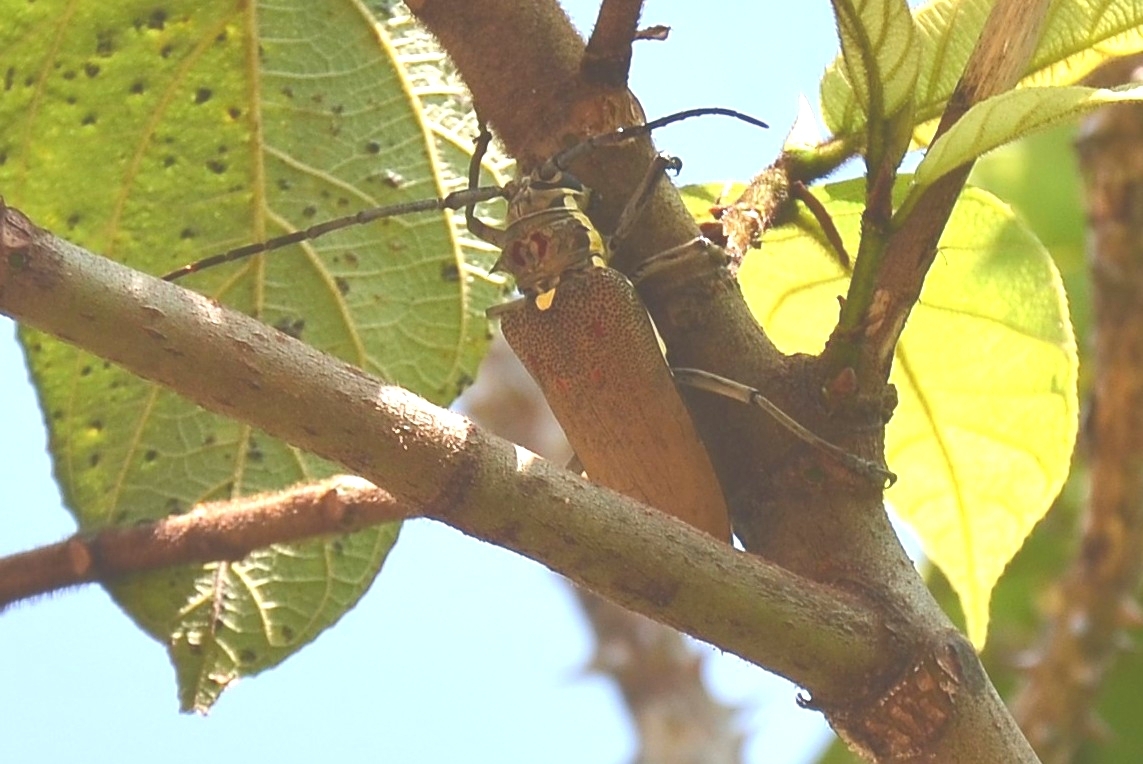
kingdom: Animalia
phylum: Arthropoda
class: Insecta
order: Coleoptera
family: Cerambycidae
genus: Batocera
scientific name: Batocera rufomaculata
